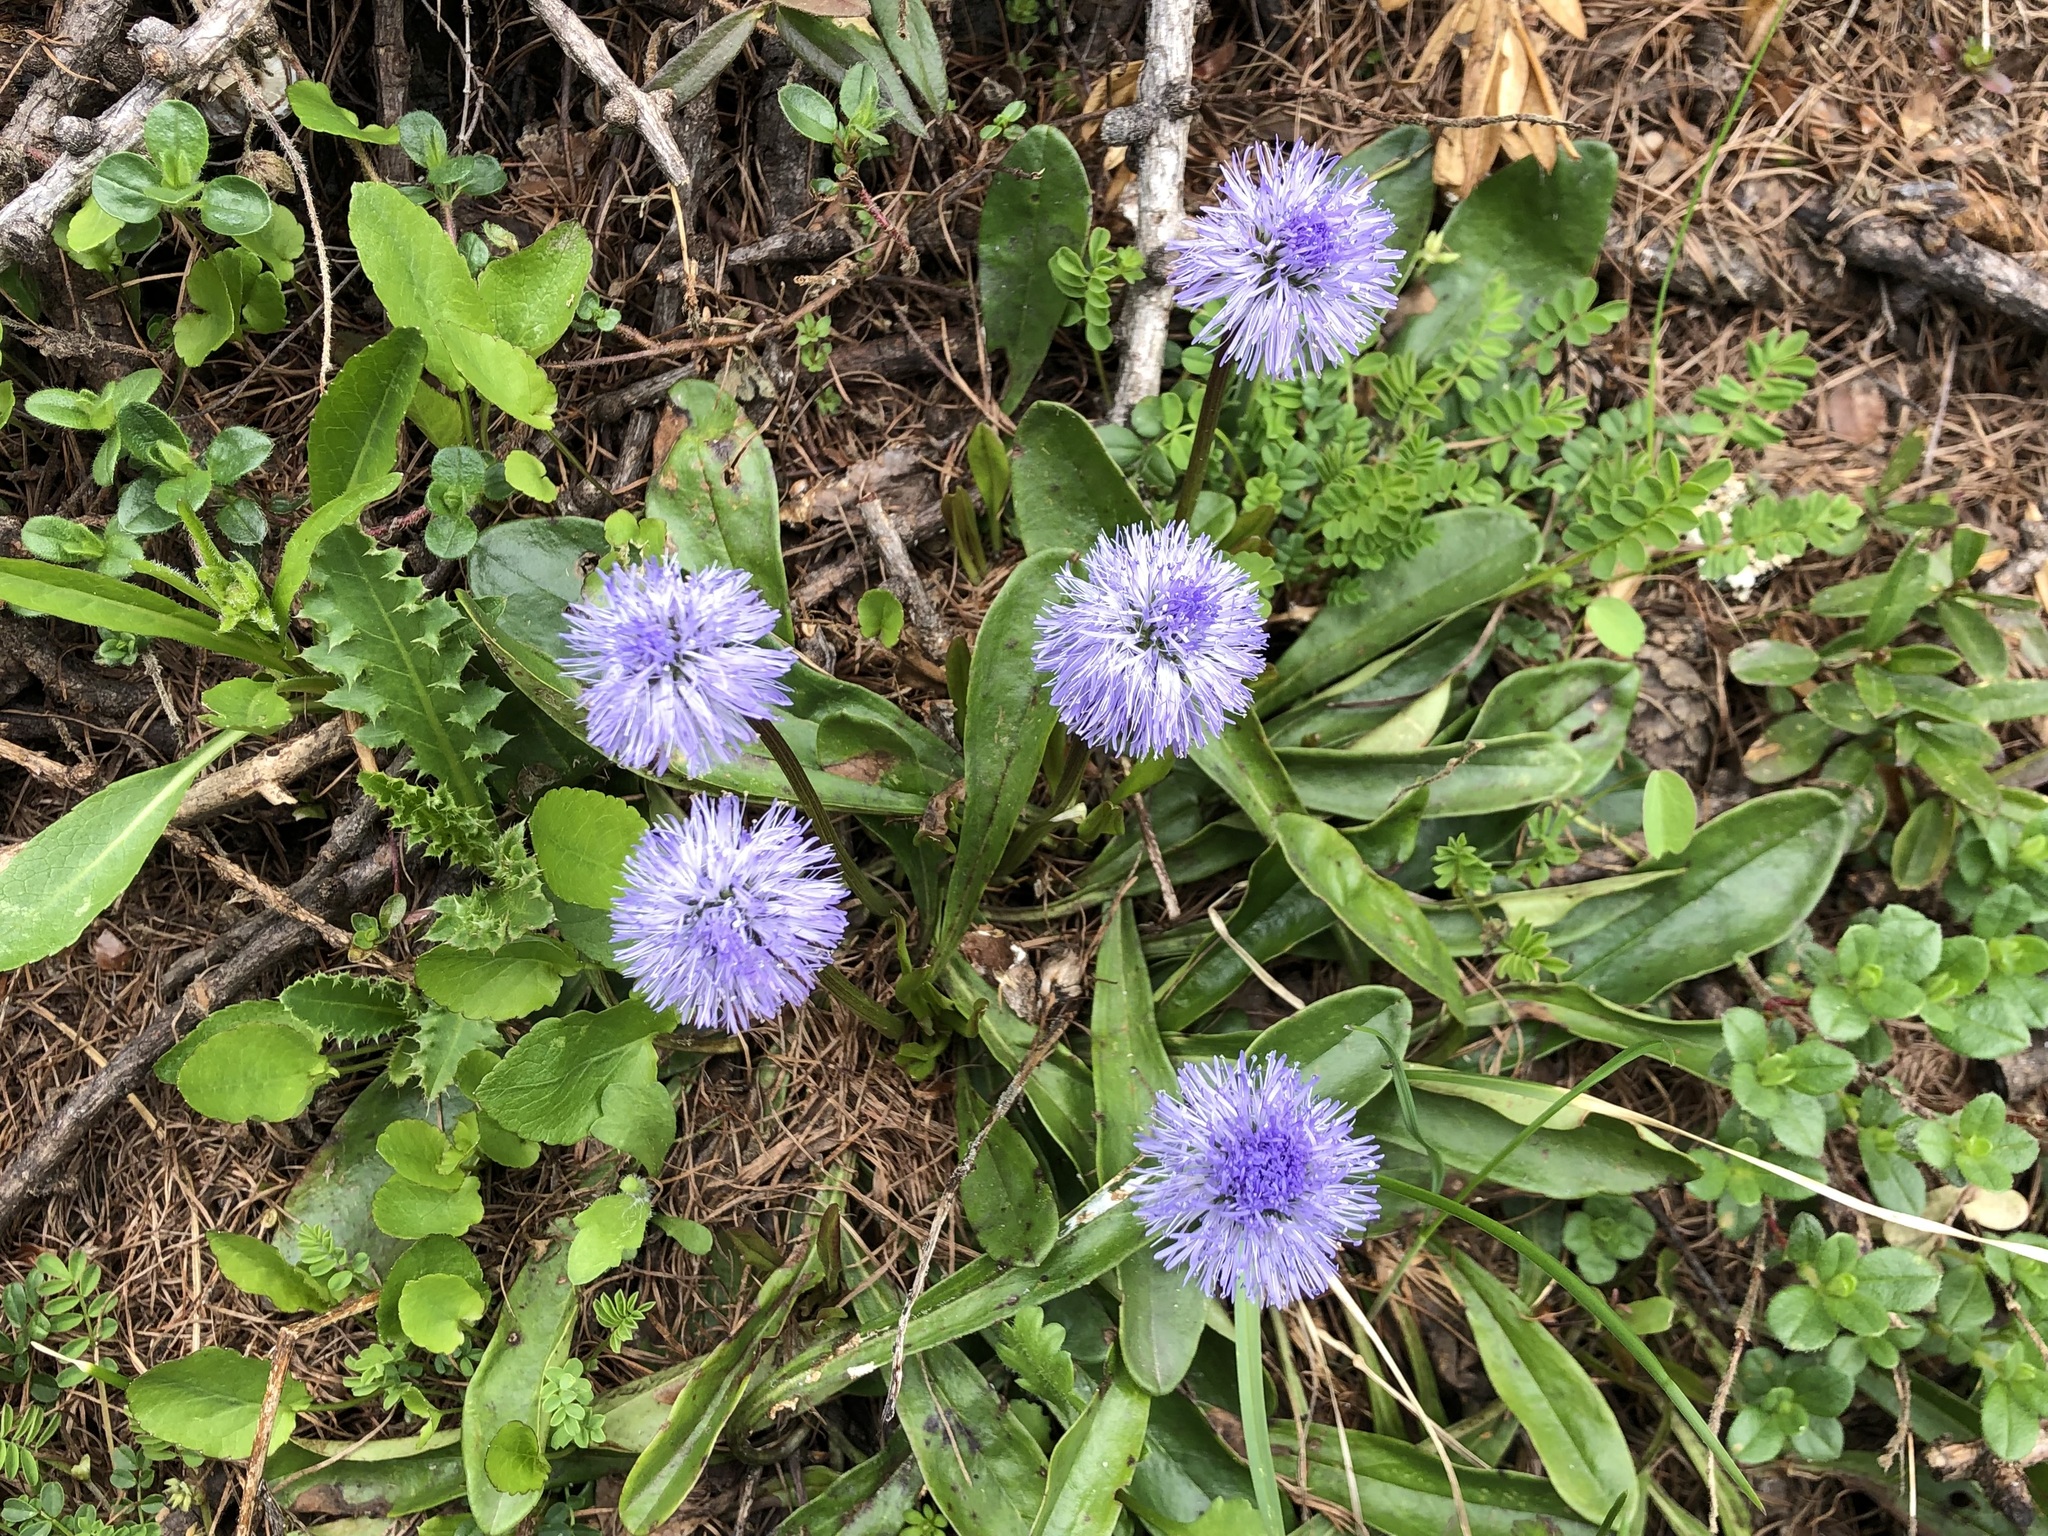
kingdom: Plantae
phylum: Tracheophyta
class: Magnoliopsida
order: Lamiales
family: Plantaginaceae
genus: Globularia
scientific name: Globularia nudicaulis
